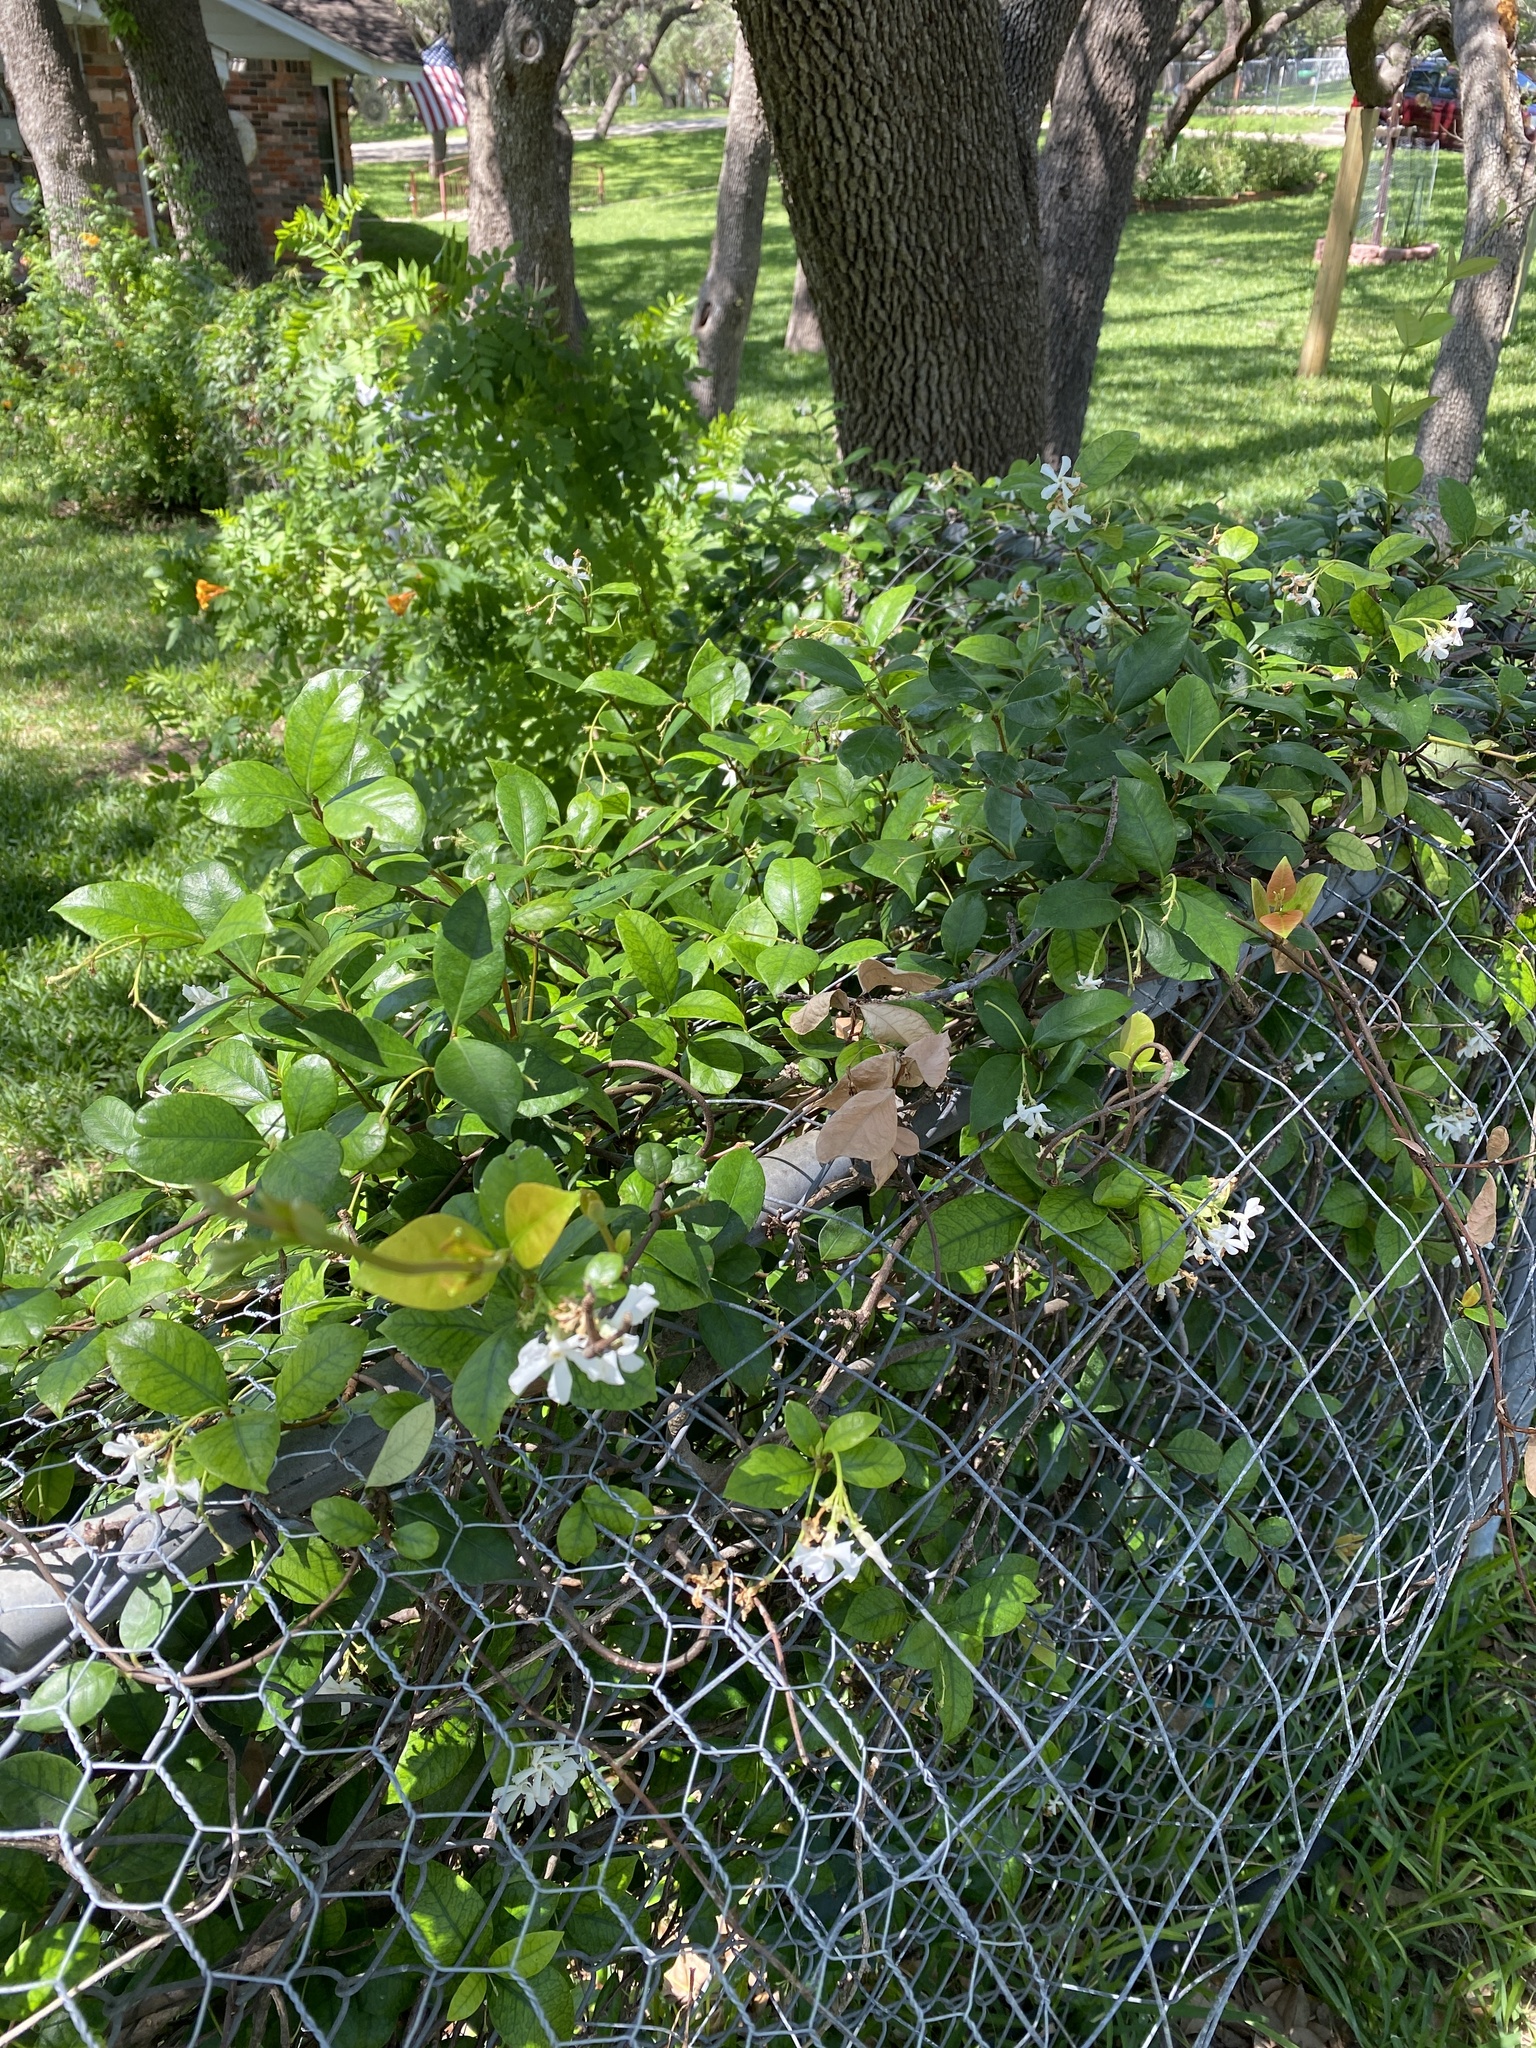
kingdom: Plantae
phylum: Tracheophyta
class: Magnoliopsida
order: Gentianales
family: Apocynaceae
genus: Trachelospermum
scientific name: Trachelospermum jasminoides
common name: Confederate jasmine
